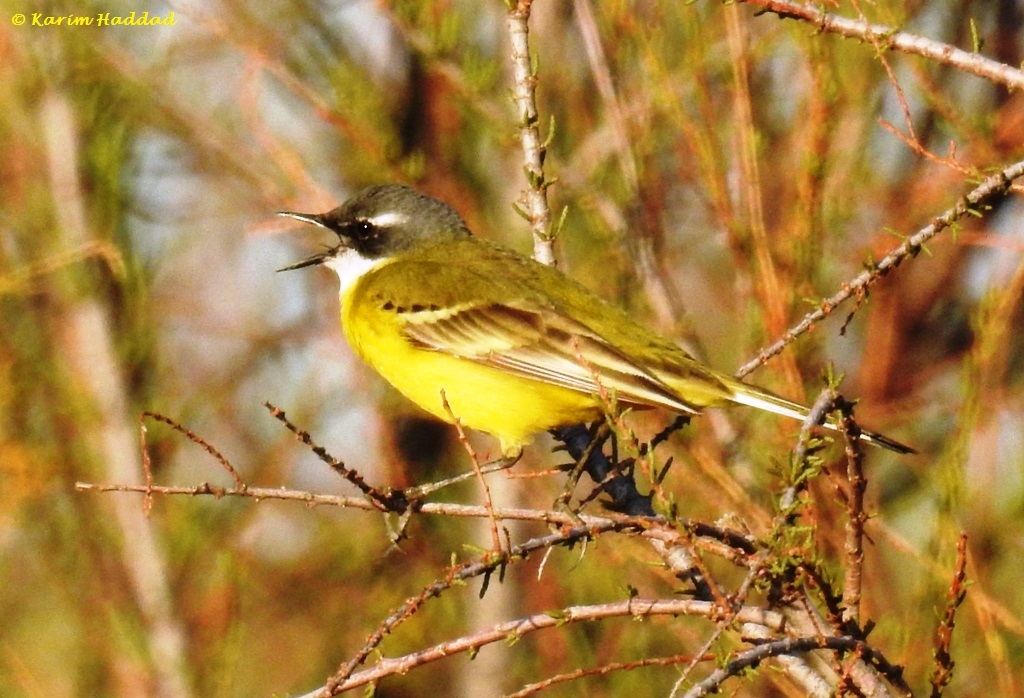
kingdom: Animalia
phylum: Chordata
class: Aves
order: Passeriformes
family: Motacillidae
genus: Motacilla
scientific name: Motacilla flava
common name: Western yellow wagtail
